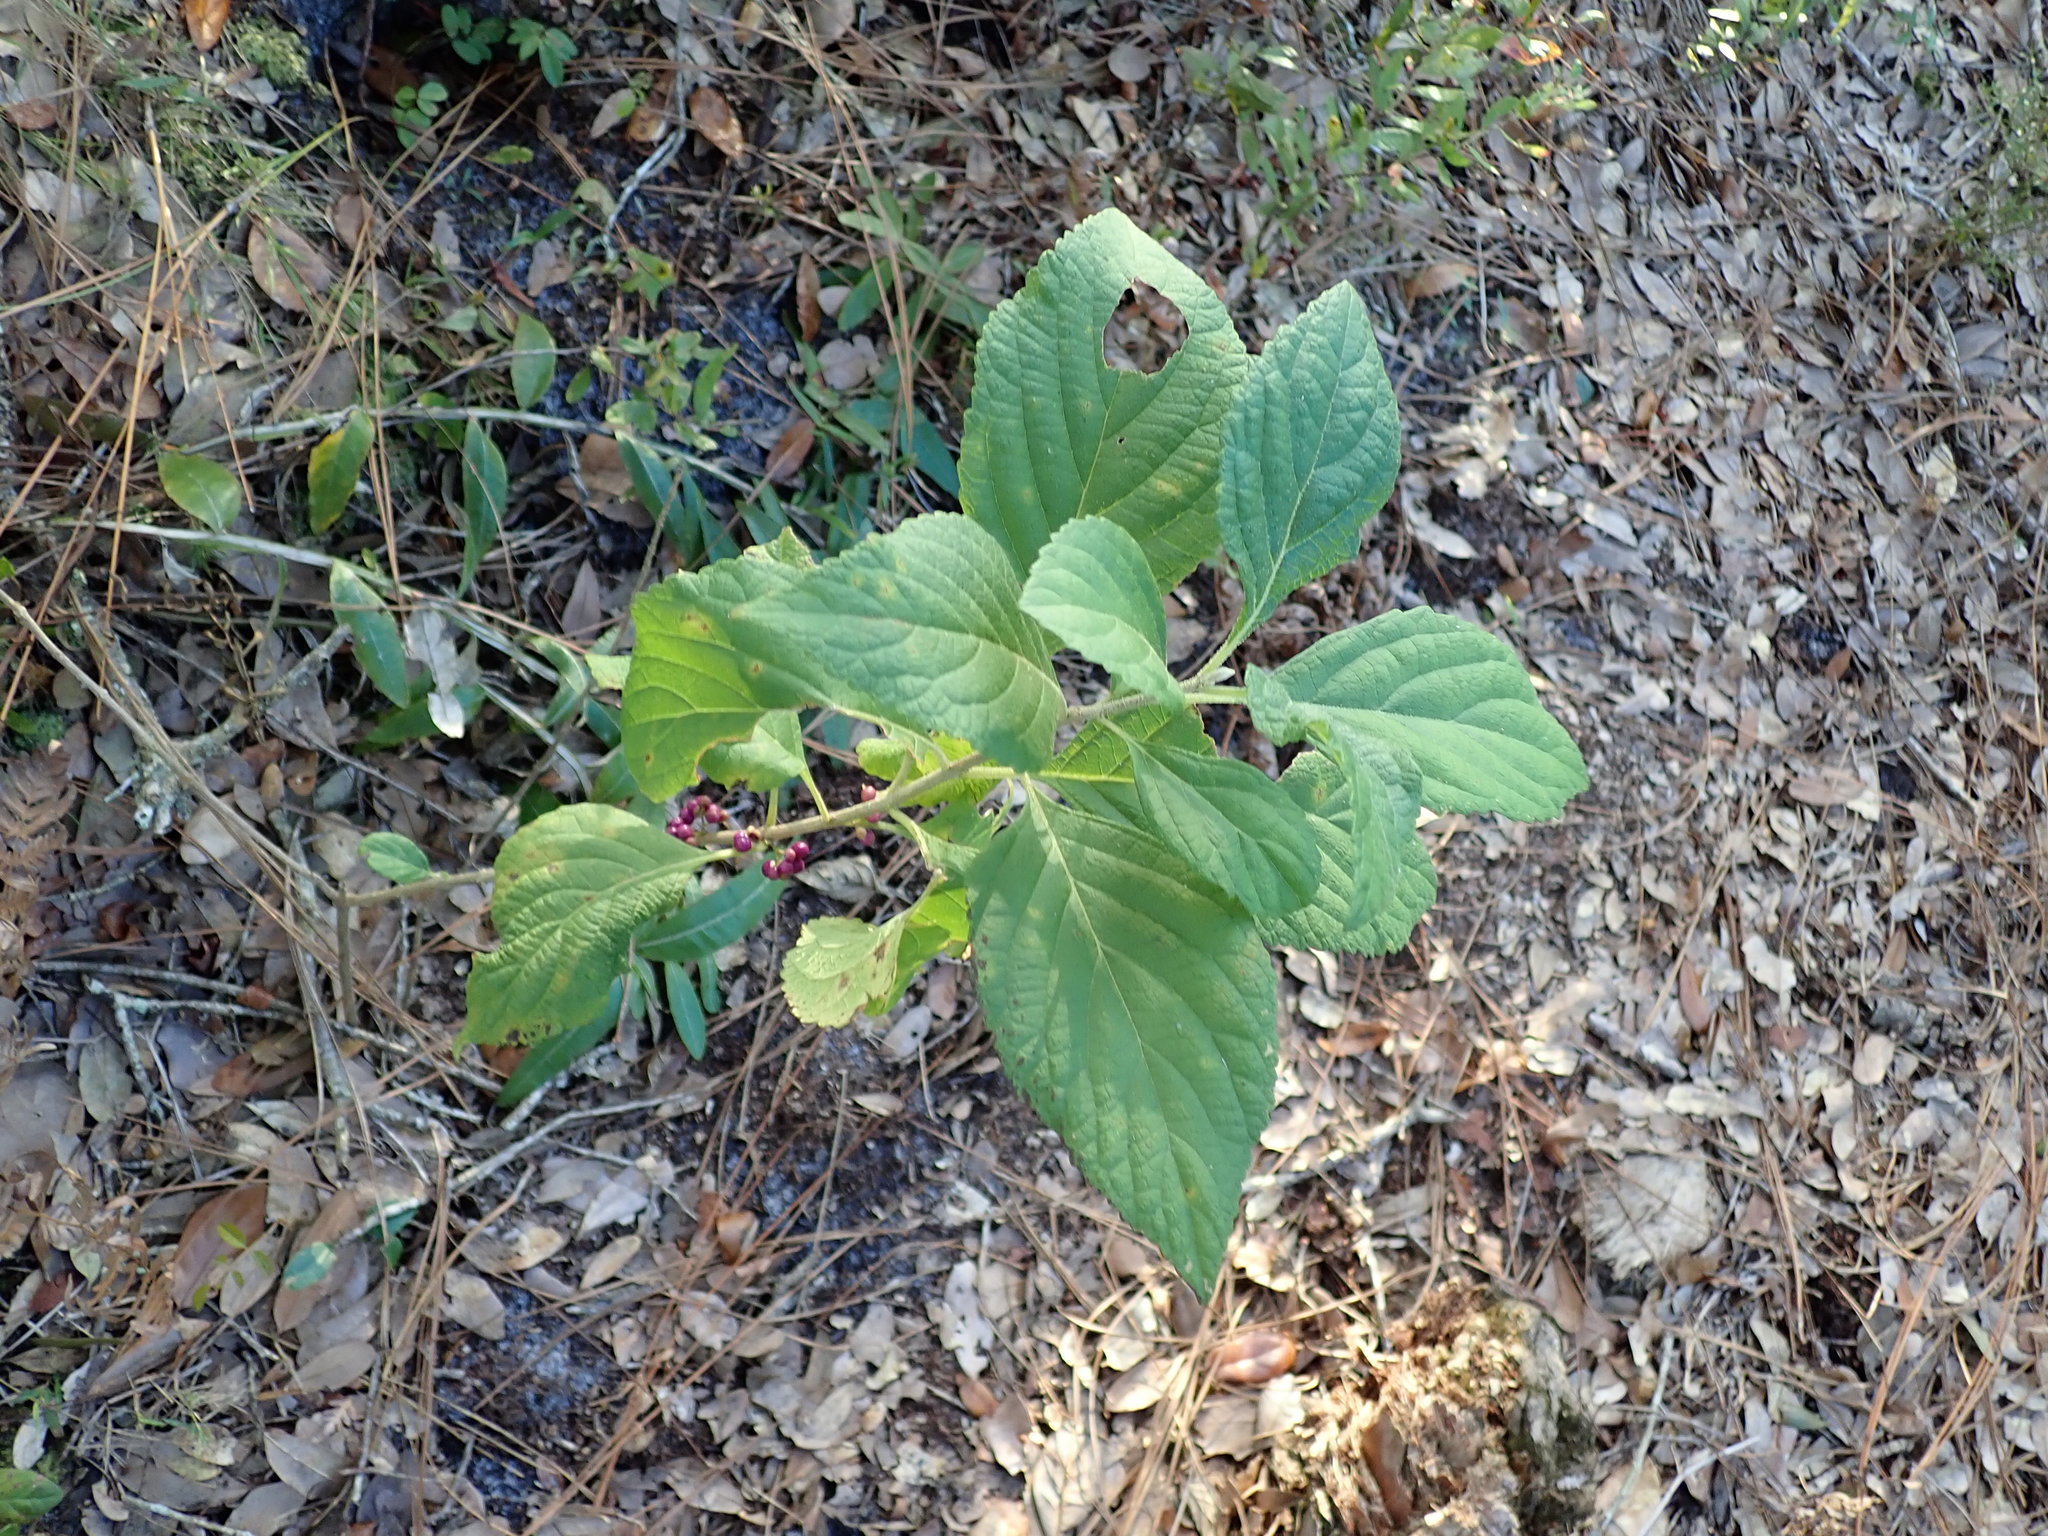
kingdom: Plantae
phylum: Tracheophyta
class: Magnoliopsida
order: Lamiales
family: Lamiaceae
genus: Callicarpa
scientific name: Callicarpa americana
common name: American beautyberry
